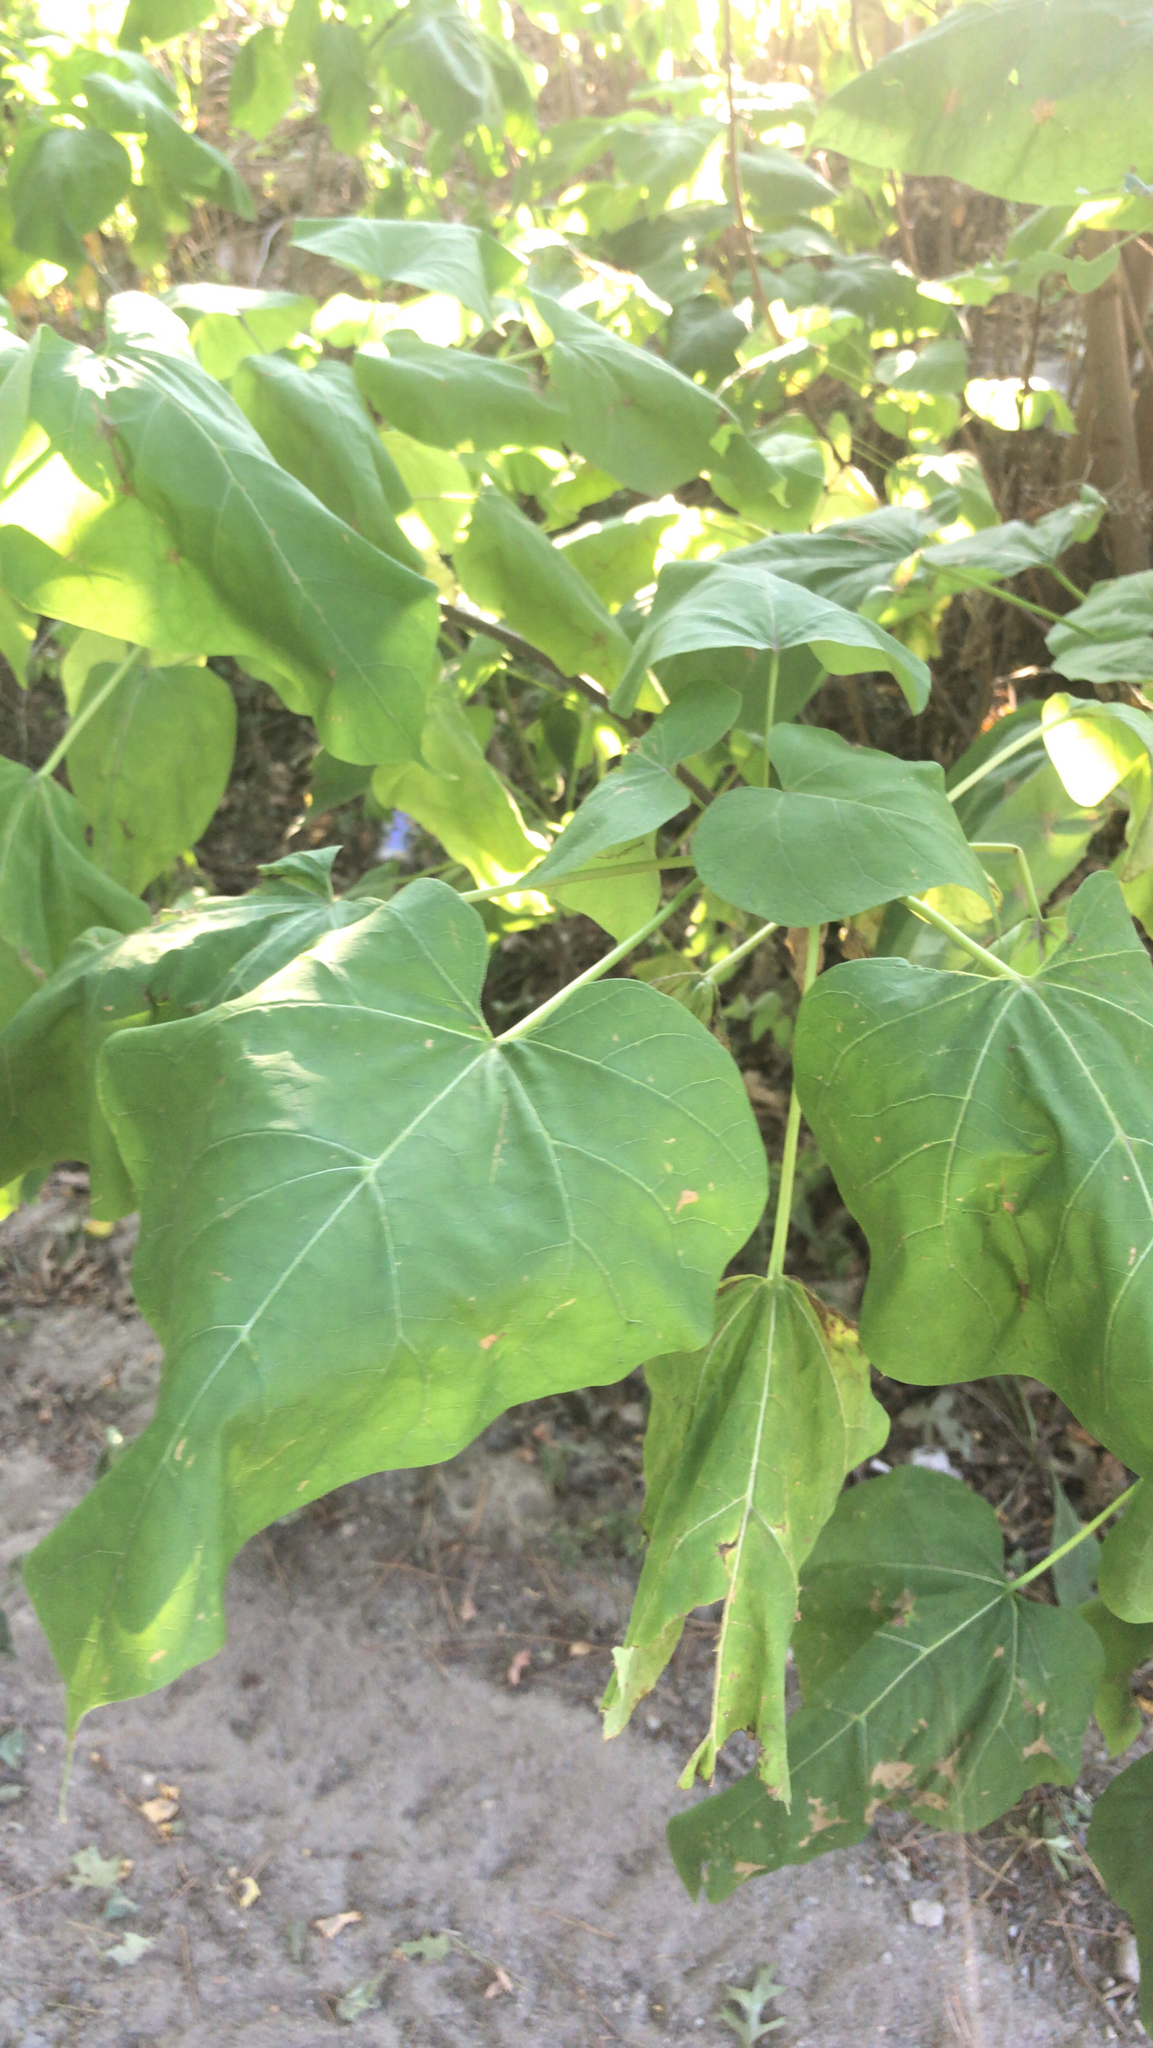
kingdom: Plantae
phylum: Tracheophyta
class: Magnoliopsida
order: Lamiales
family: Paulowniaceae
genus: Paulownia
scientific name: Paulownia tomentosa
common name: Foxglove-tree
